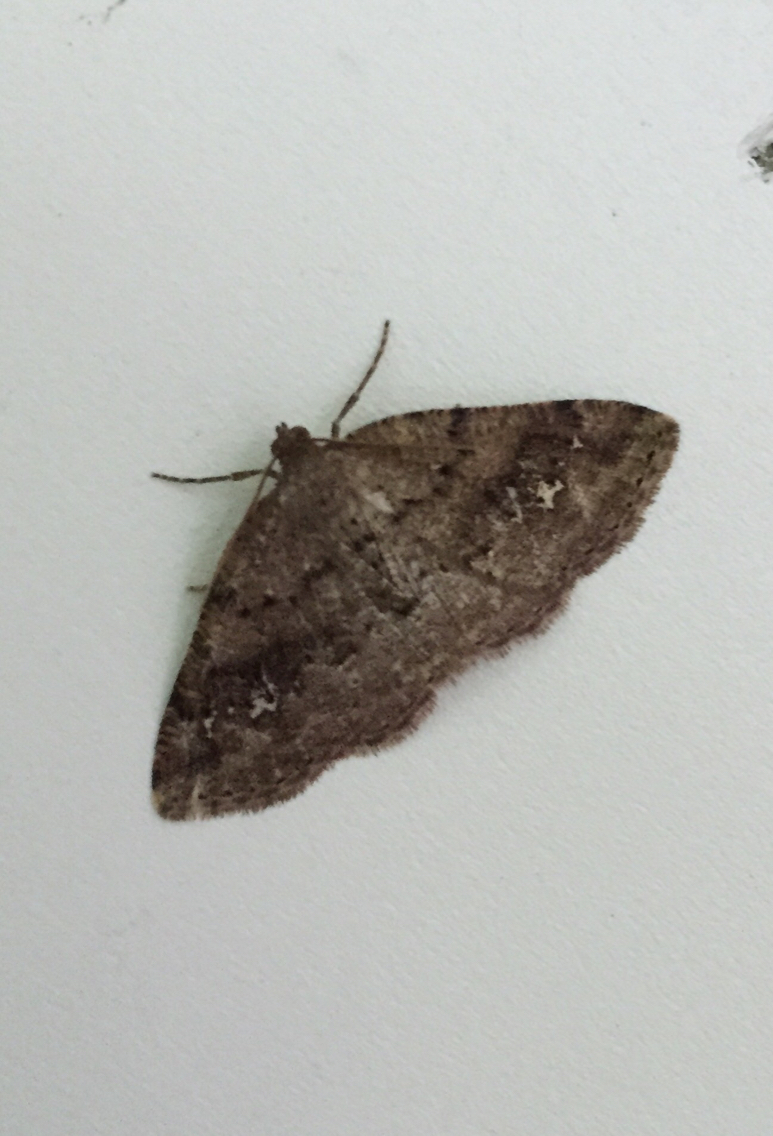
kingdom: Animalia
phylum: Arthropoda
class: Insecta
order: Lepidoptera
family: Geometridae
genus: Homochlodes
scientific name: Homochlodes fritillaria
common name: Pale homochlodes
